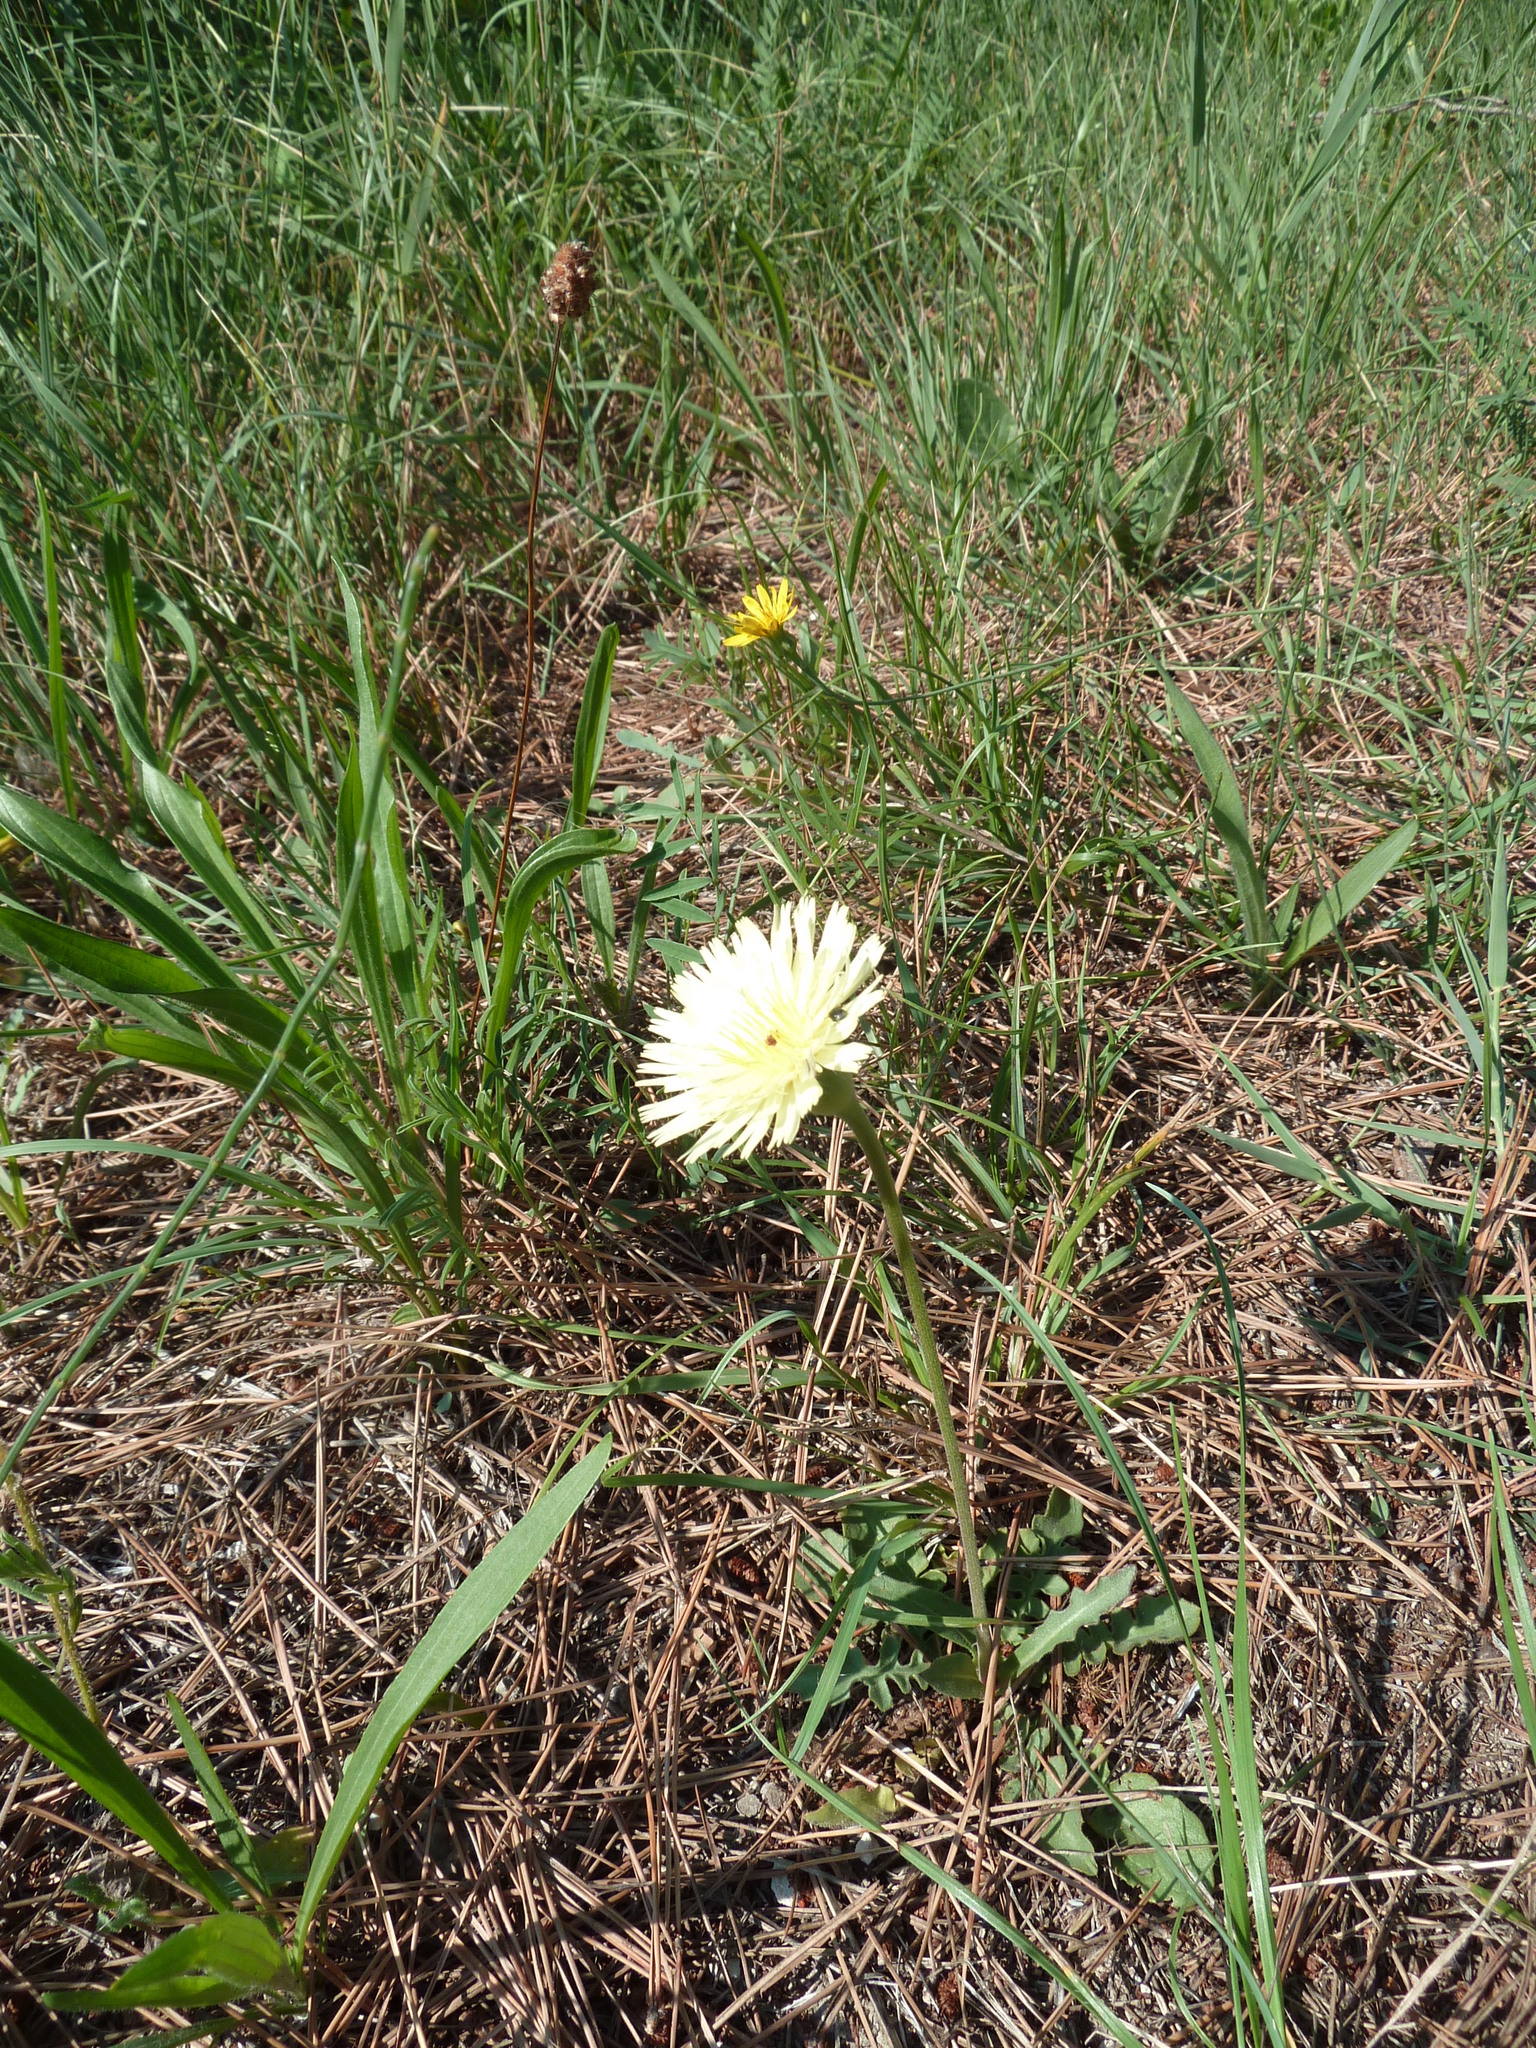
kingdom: Plantae
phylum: Tracheophyta
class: Magnoliopsida
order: Asterales
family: Asteraceae
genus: Urospermum
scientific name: Urospermum dalechampii
